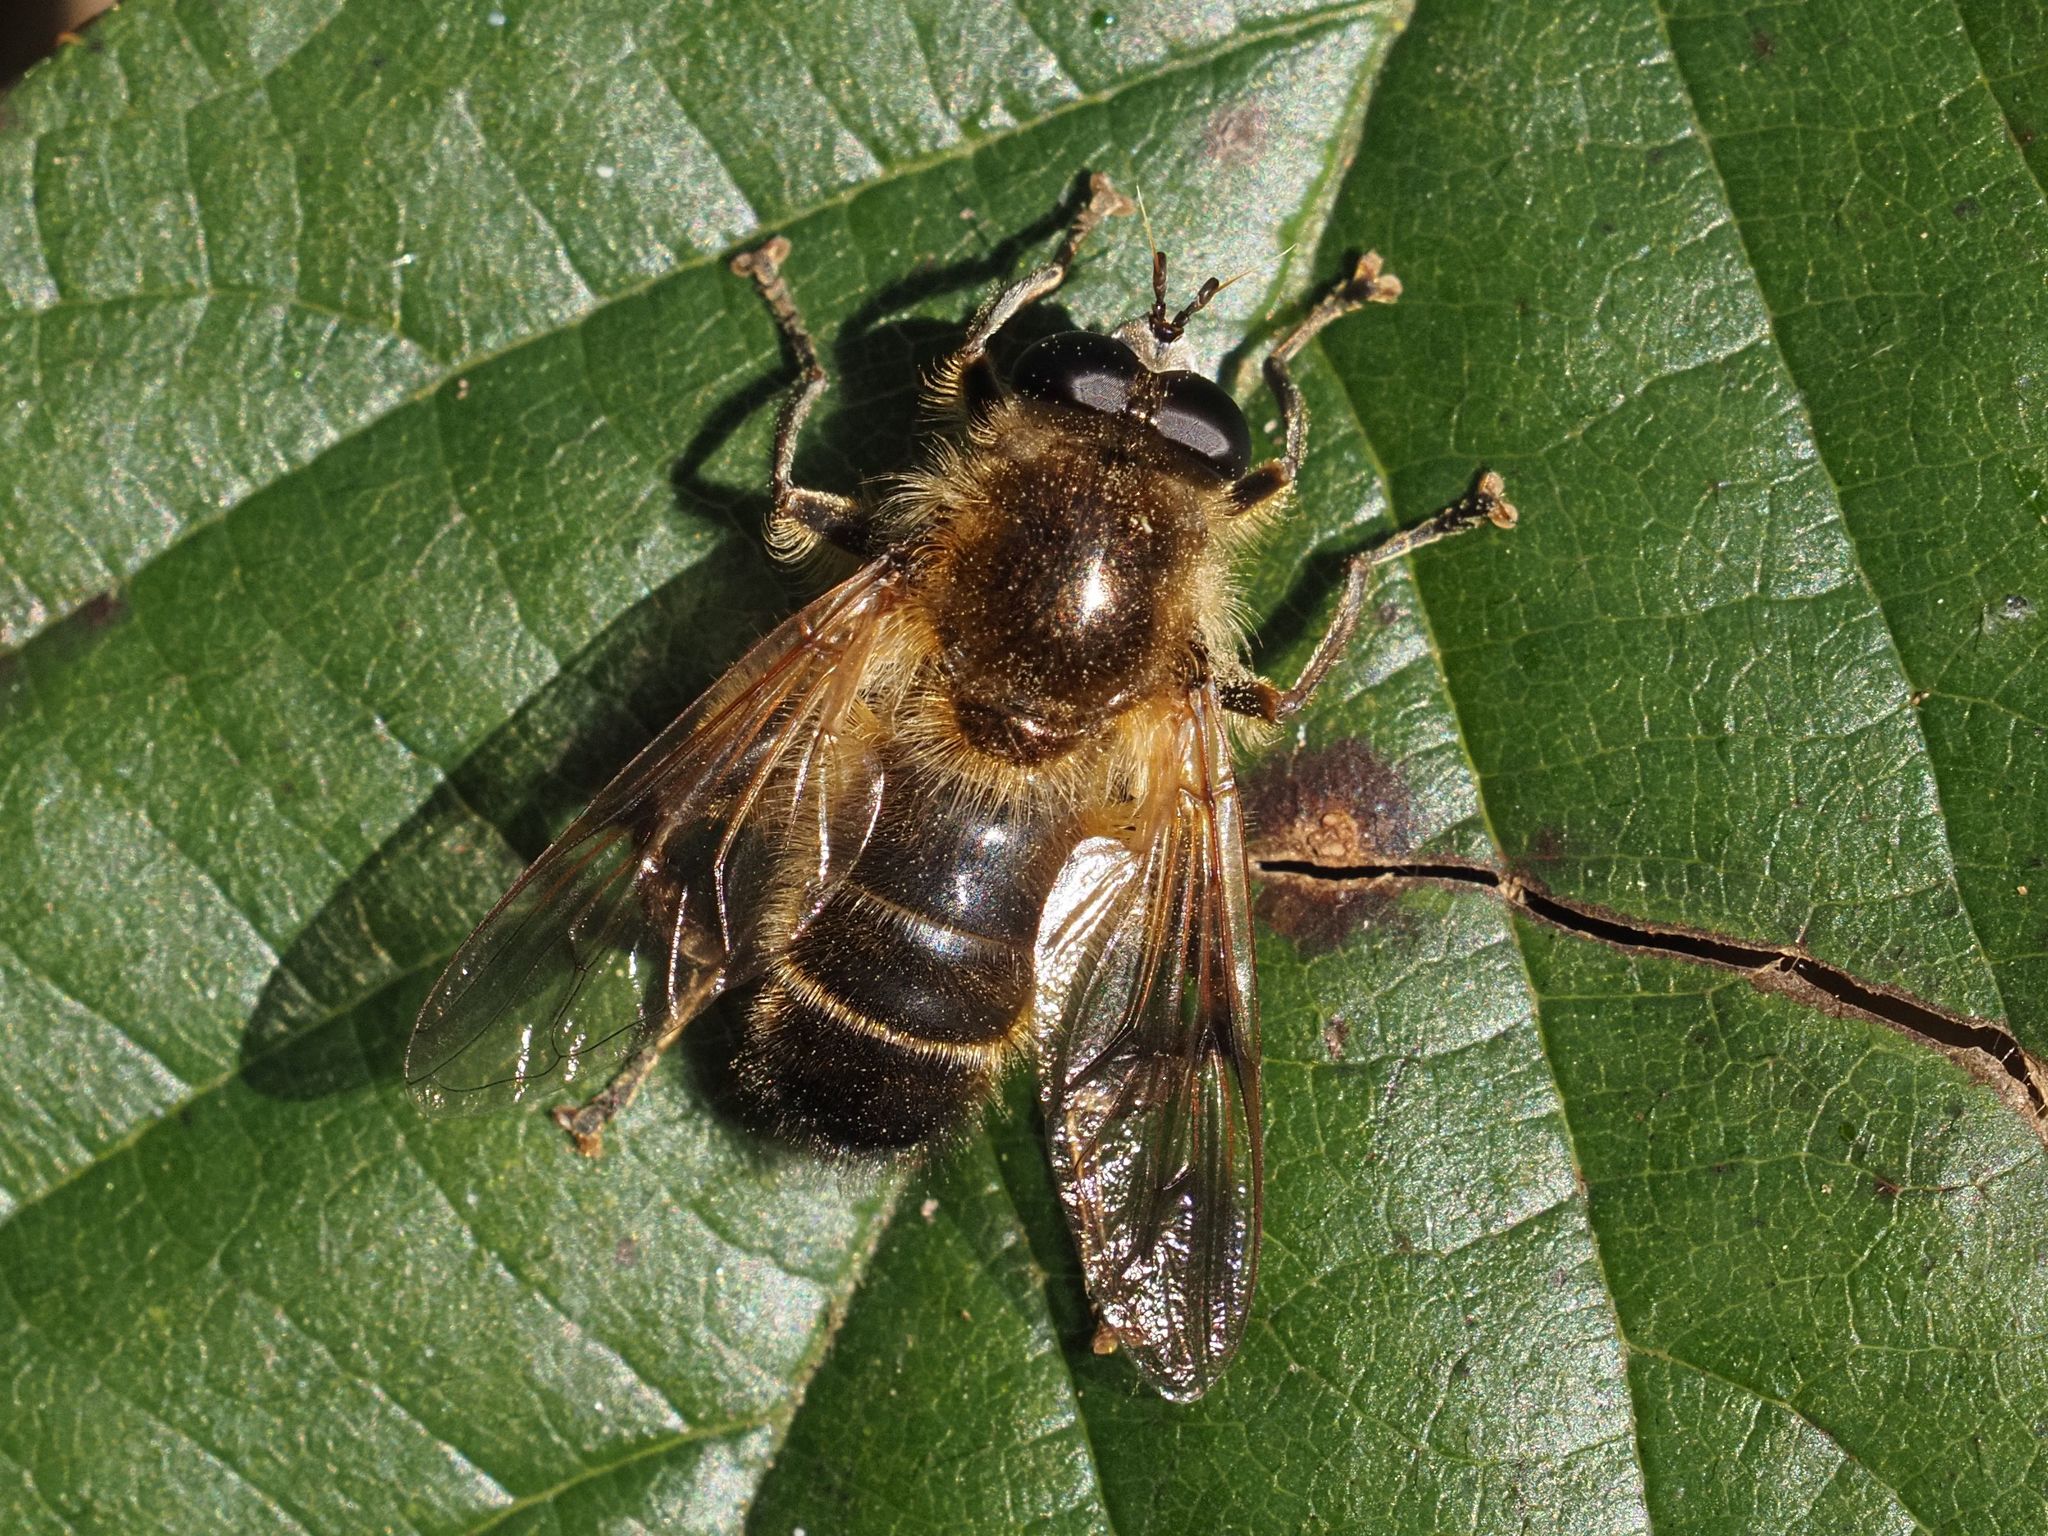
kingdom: Animalia
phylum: Arthropoda
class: Insecta
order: Diptera
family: Syrphidae
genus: Brachypalpus
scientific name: Brachypalpus valgus
